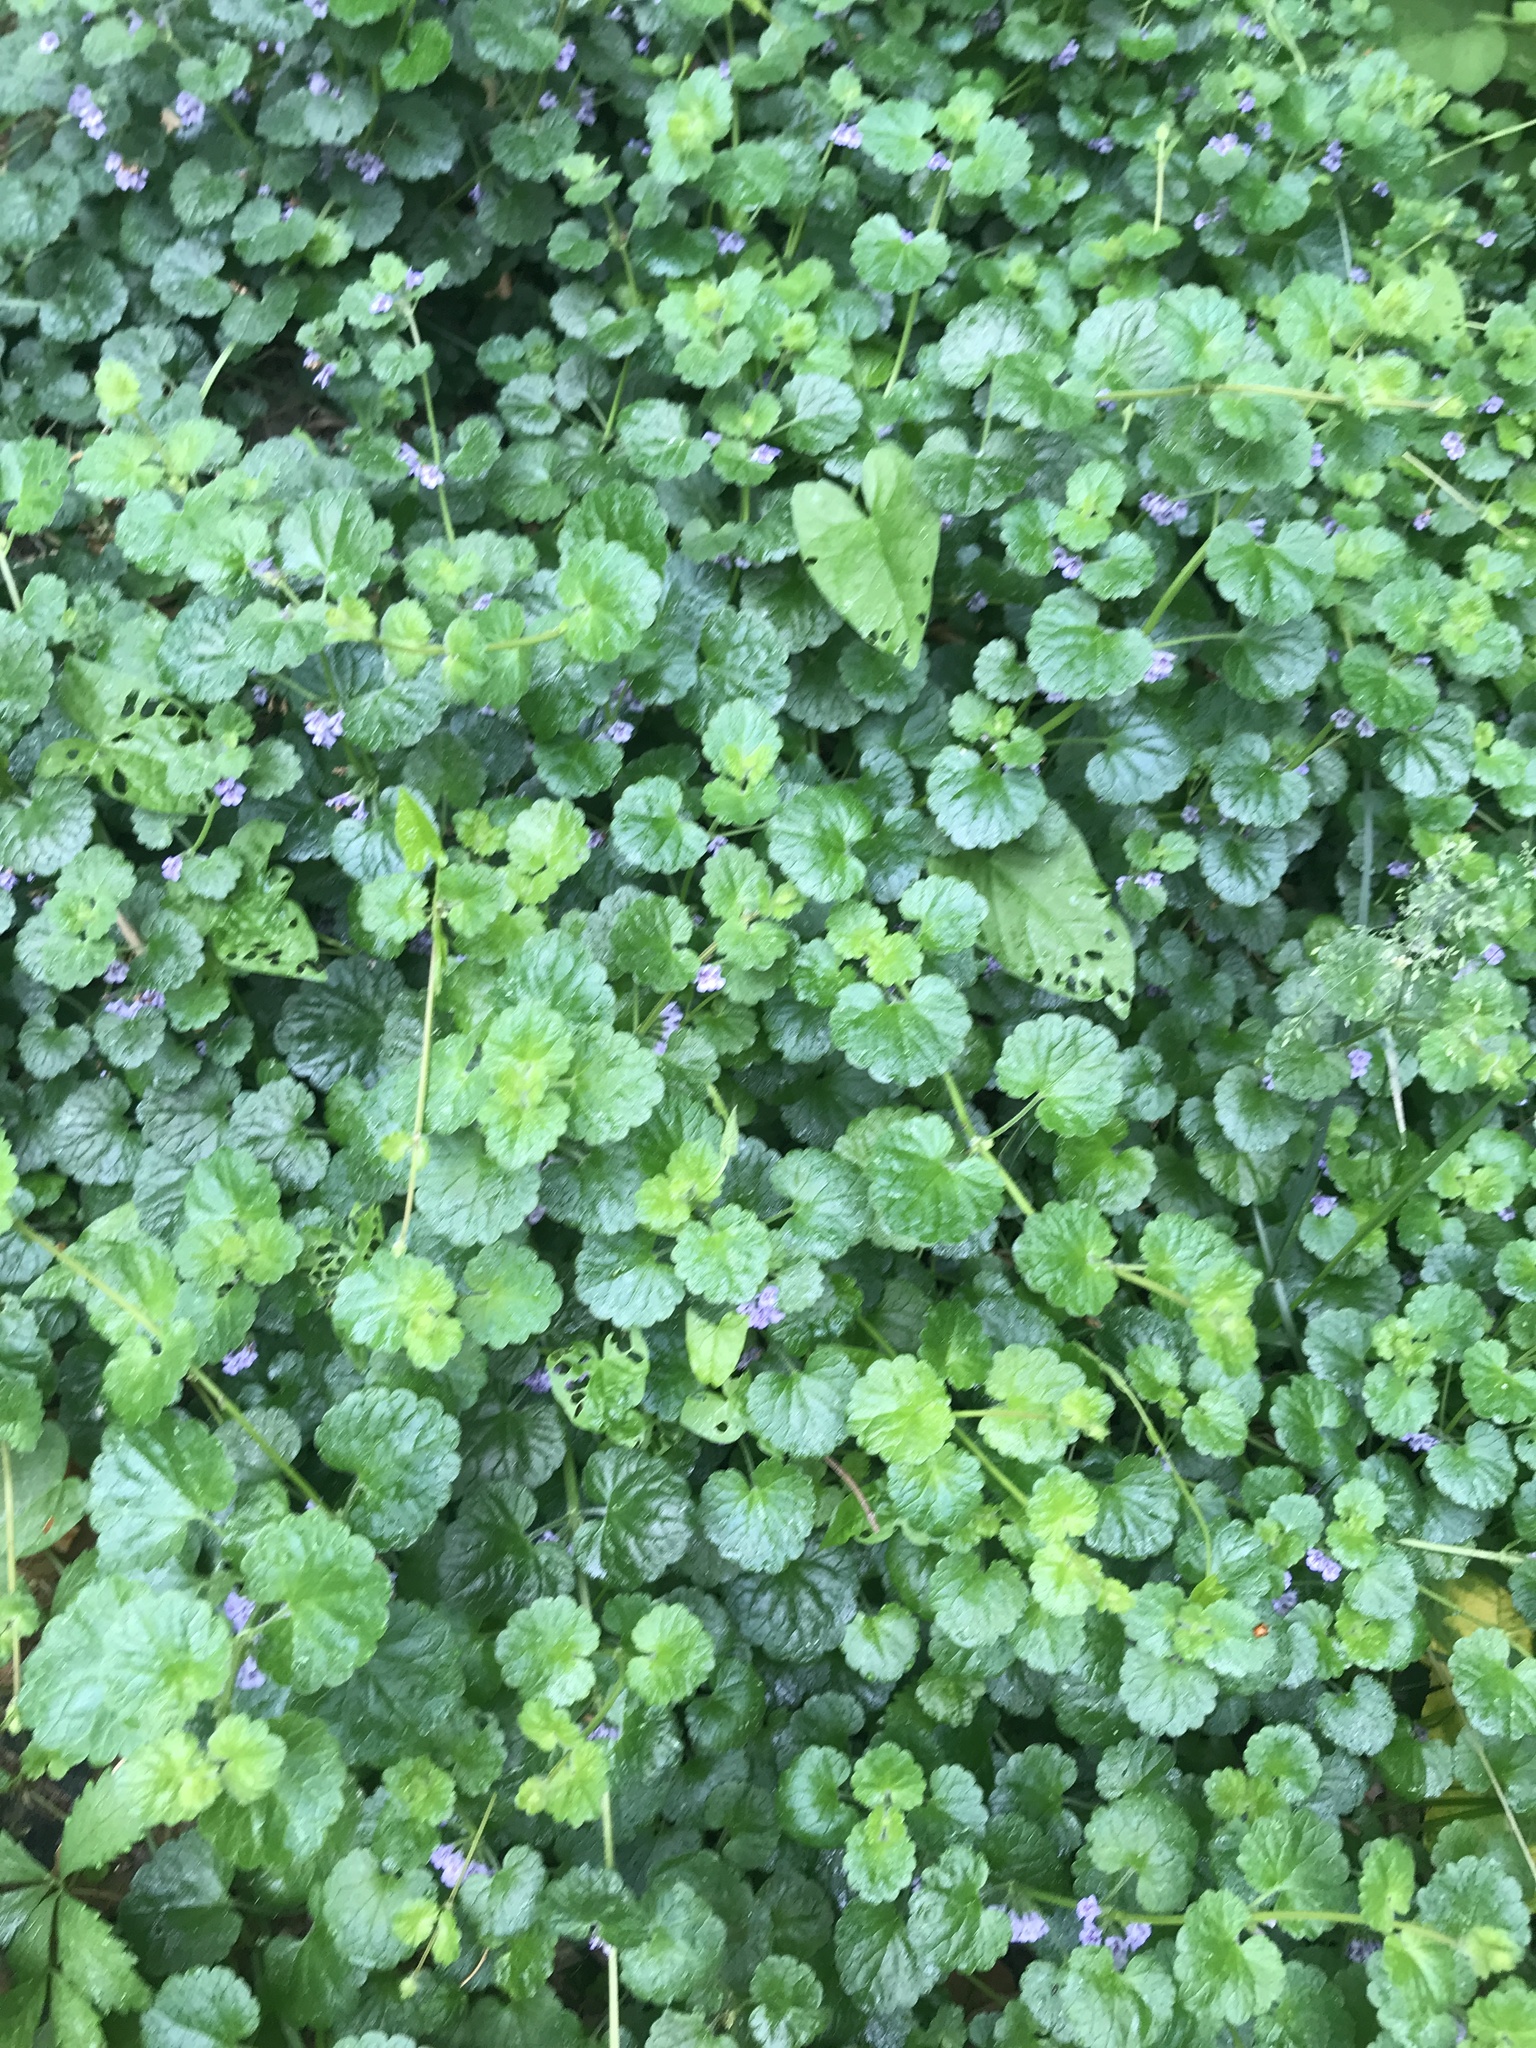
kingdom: Plantae
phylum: Tracheophyta
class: Magnoliopsida
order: Lamiales
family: Lamiaceae
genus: Glechoma
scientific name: Glechoma hederacea
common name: Ground ivy
